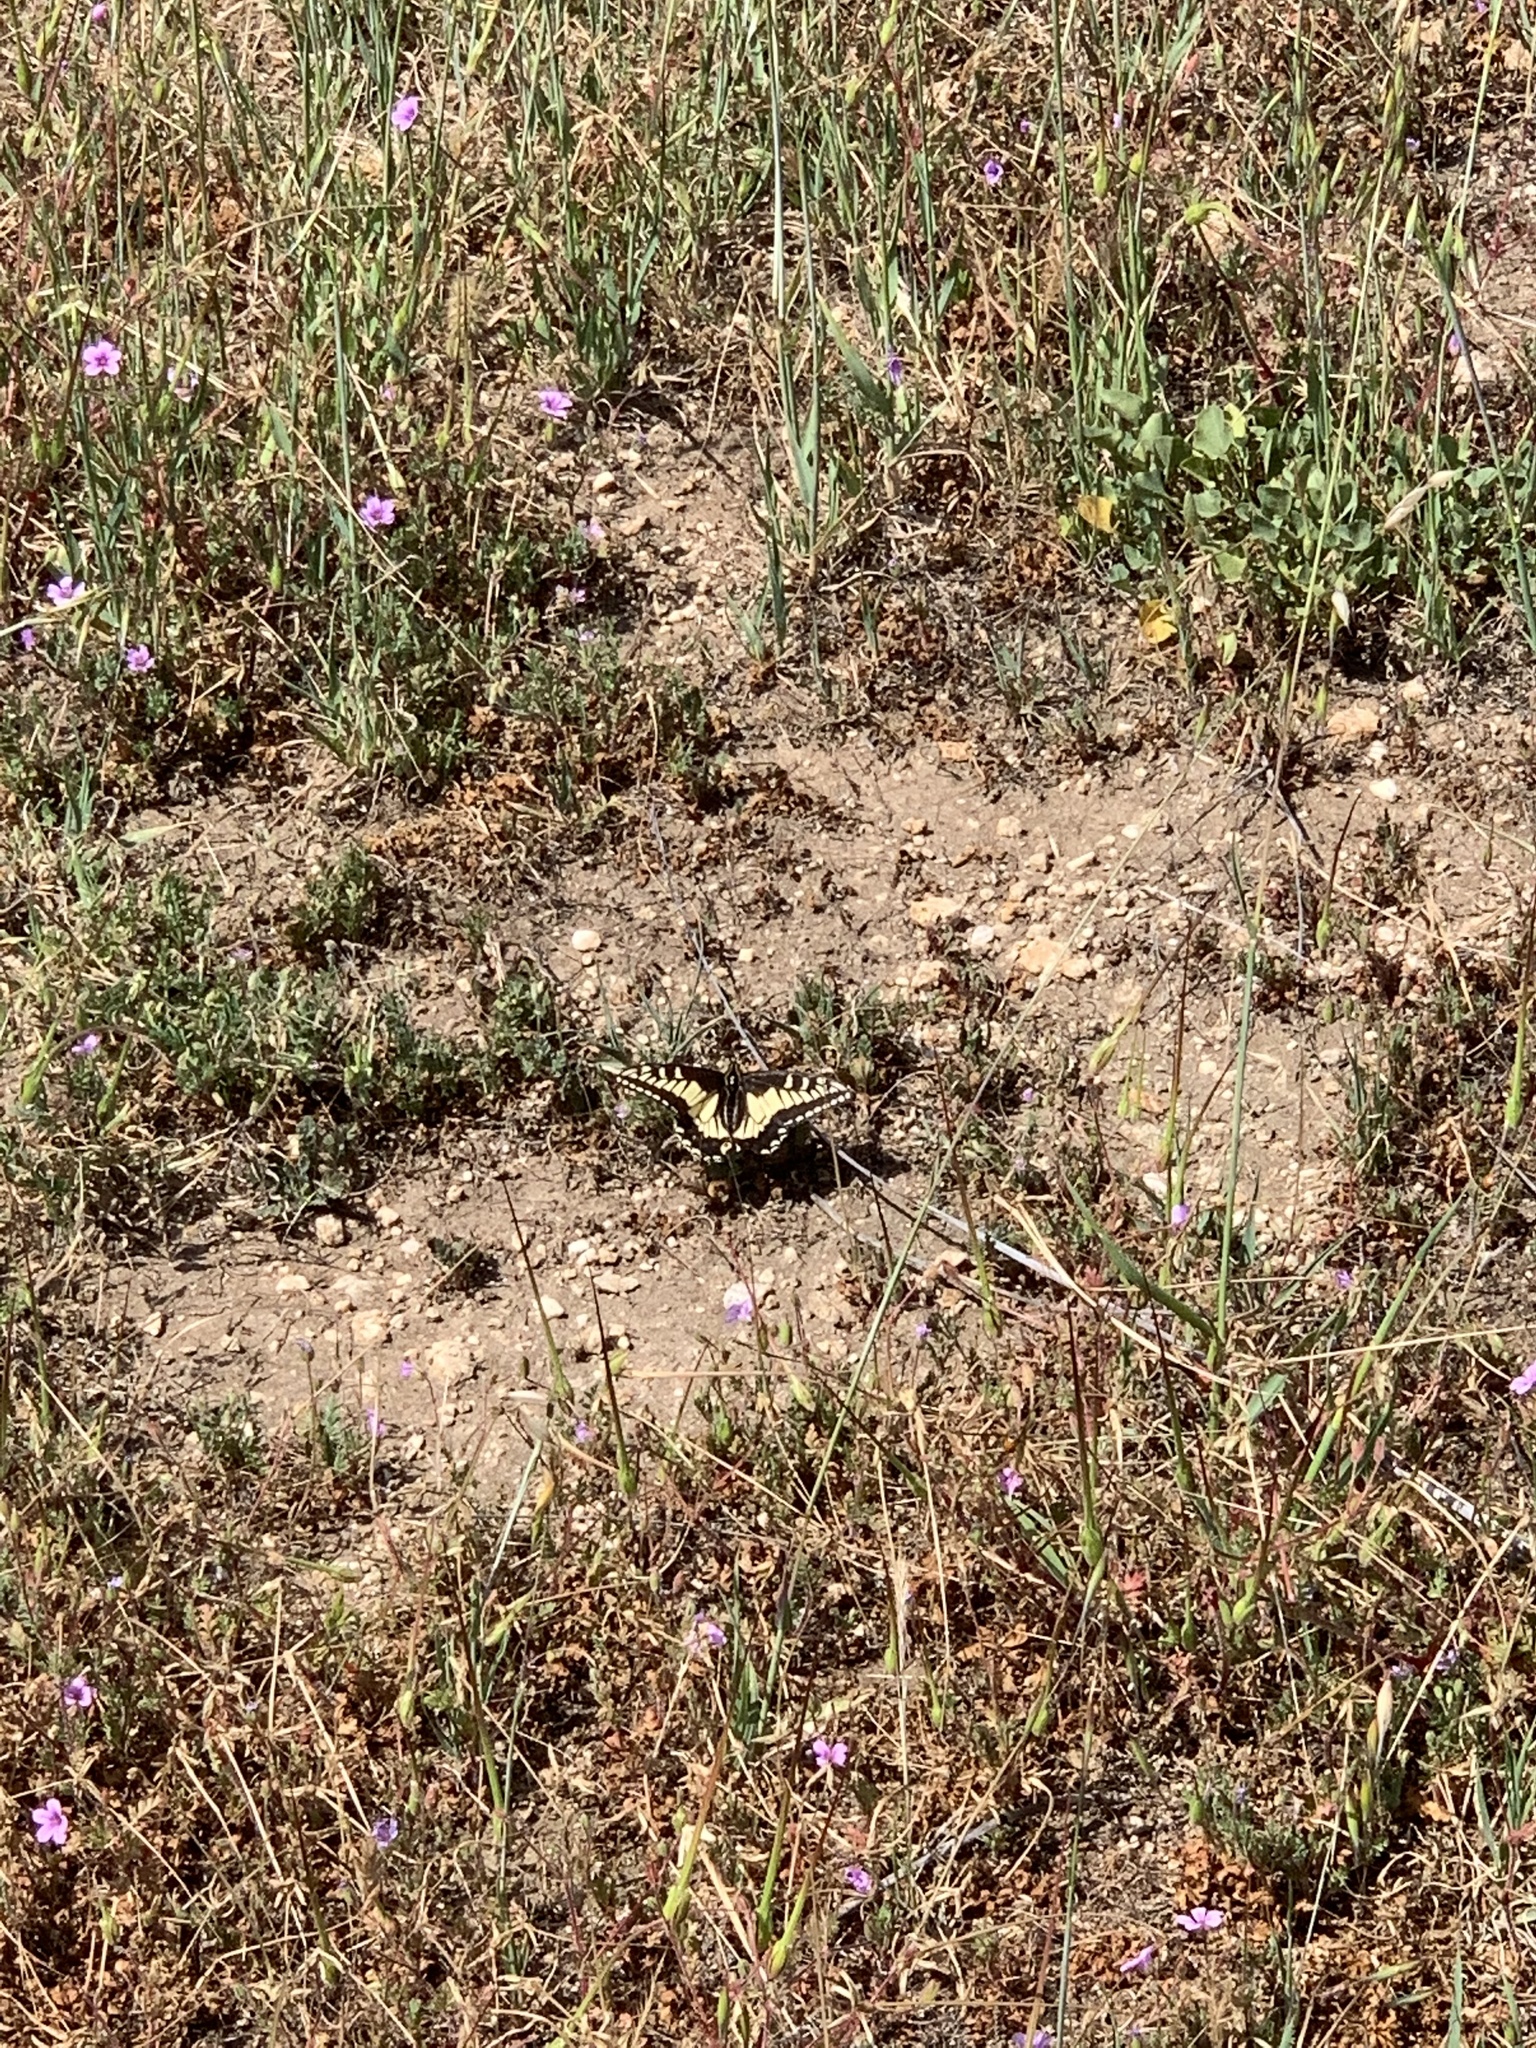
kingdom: Animalia
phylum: Arthropoda
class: Insecta
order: Lepidoptera
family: Papilionidae
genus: Papilio
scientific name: Papilio zelicaon
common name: Anise swallowtail
